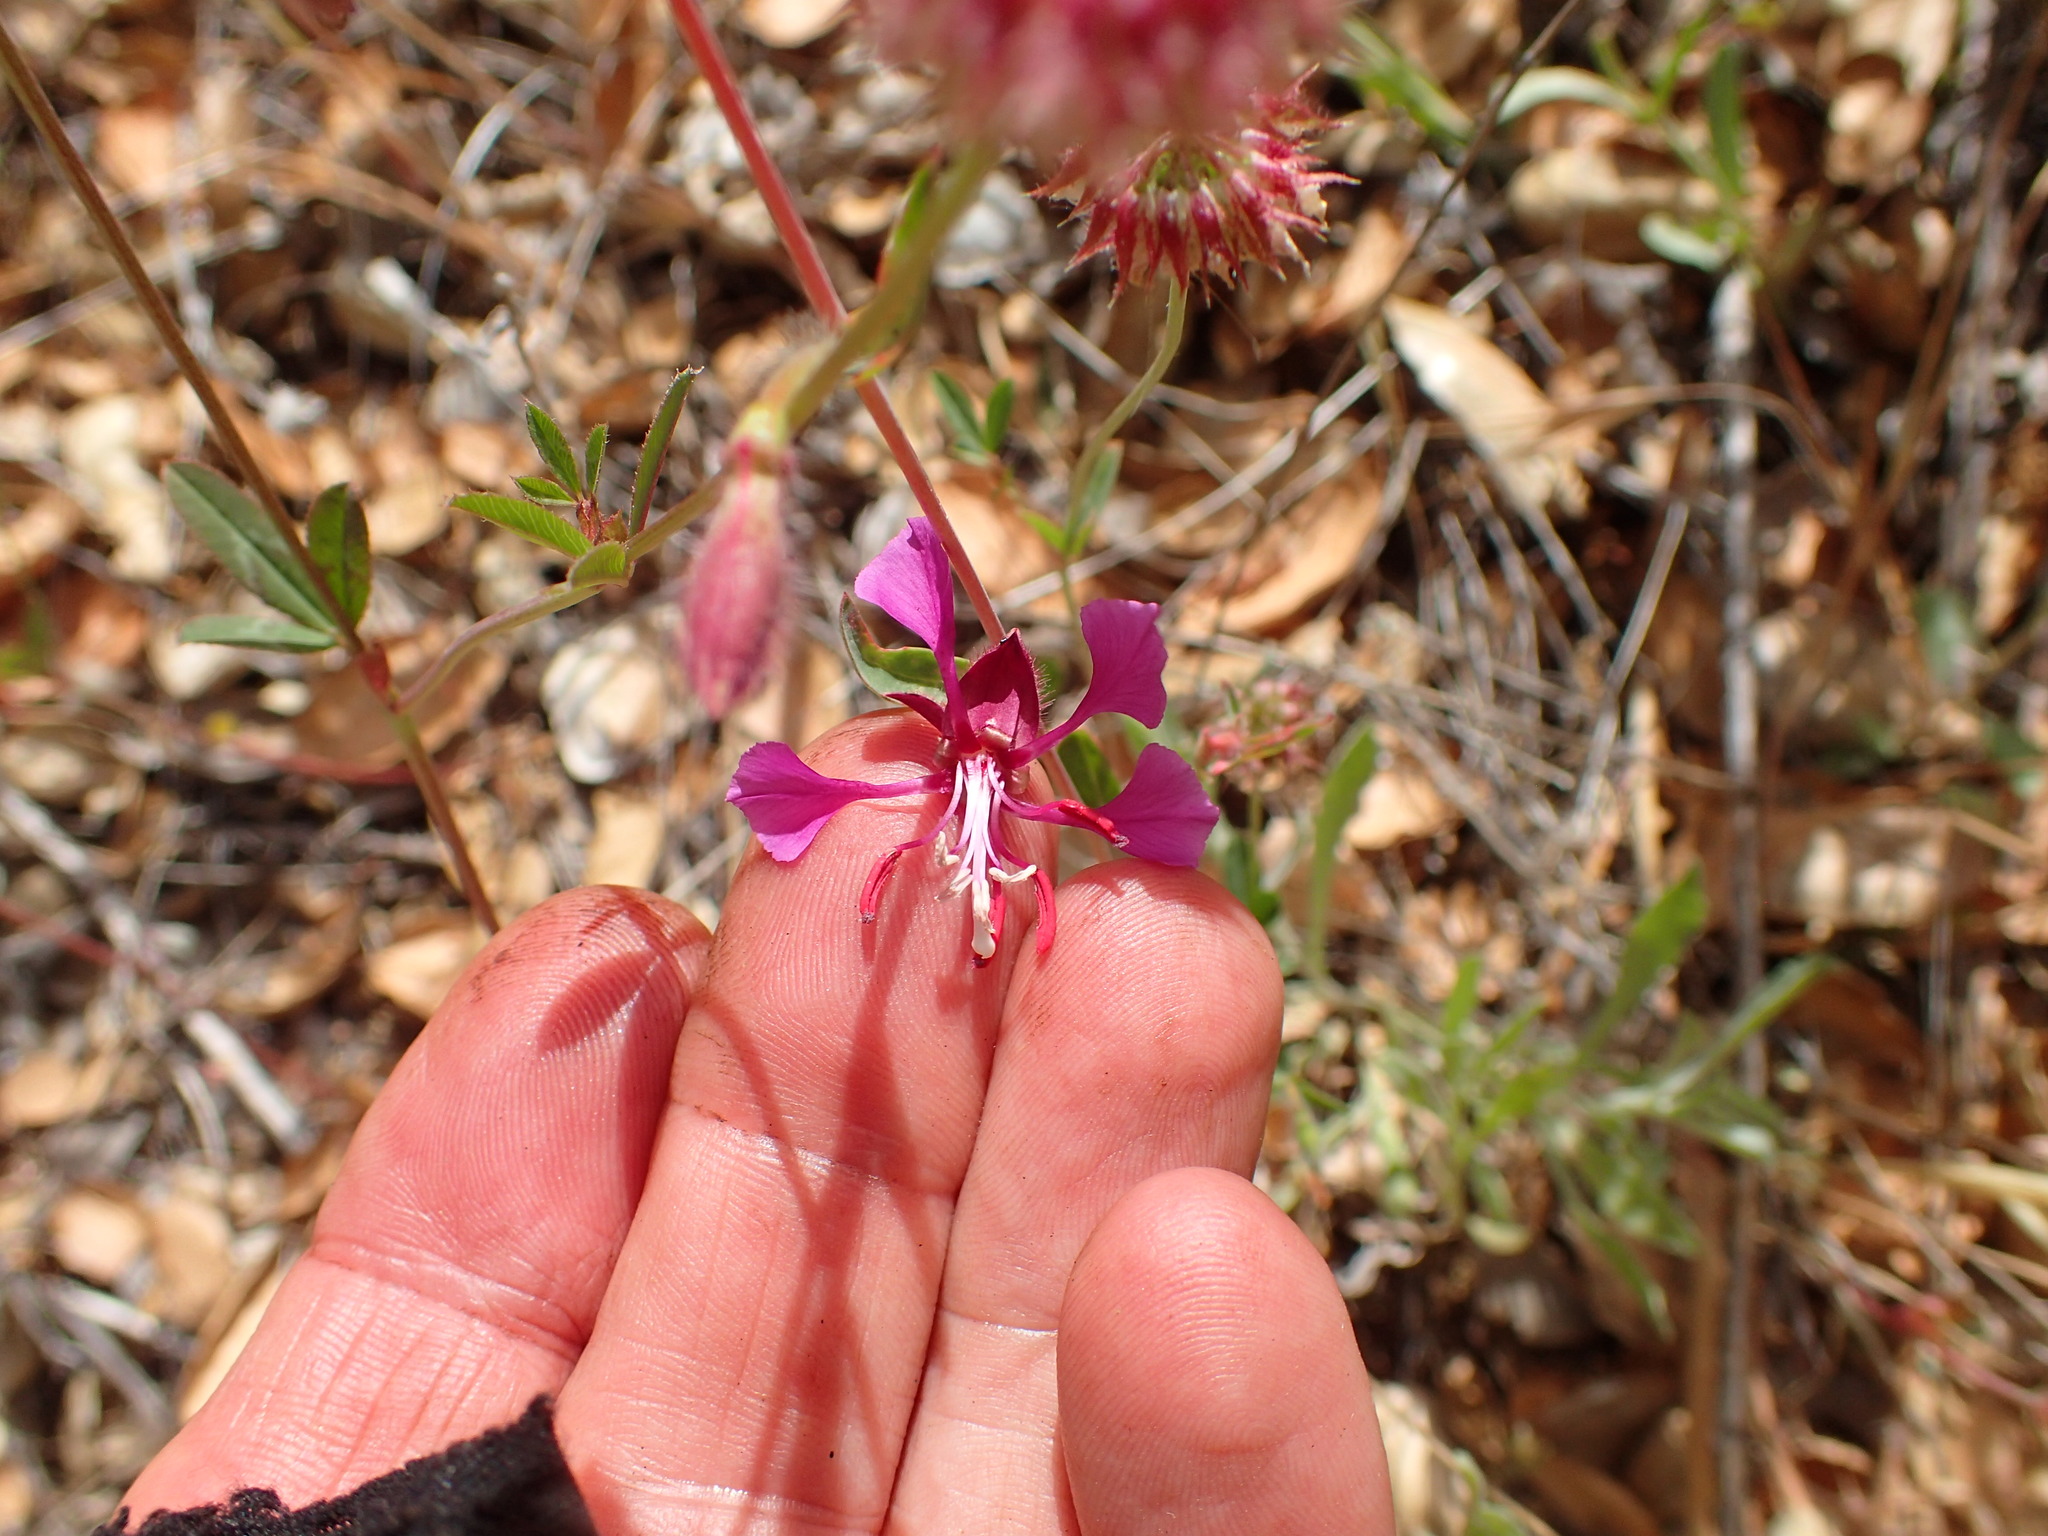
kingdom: Plantae
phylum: Tracheophyta
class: Magnoliopsida
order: Myrtales
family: Onagraceae
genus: Clarkia
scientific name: Clarkia unguiculata
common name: Clarkia
